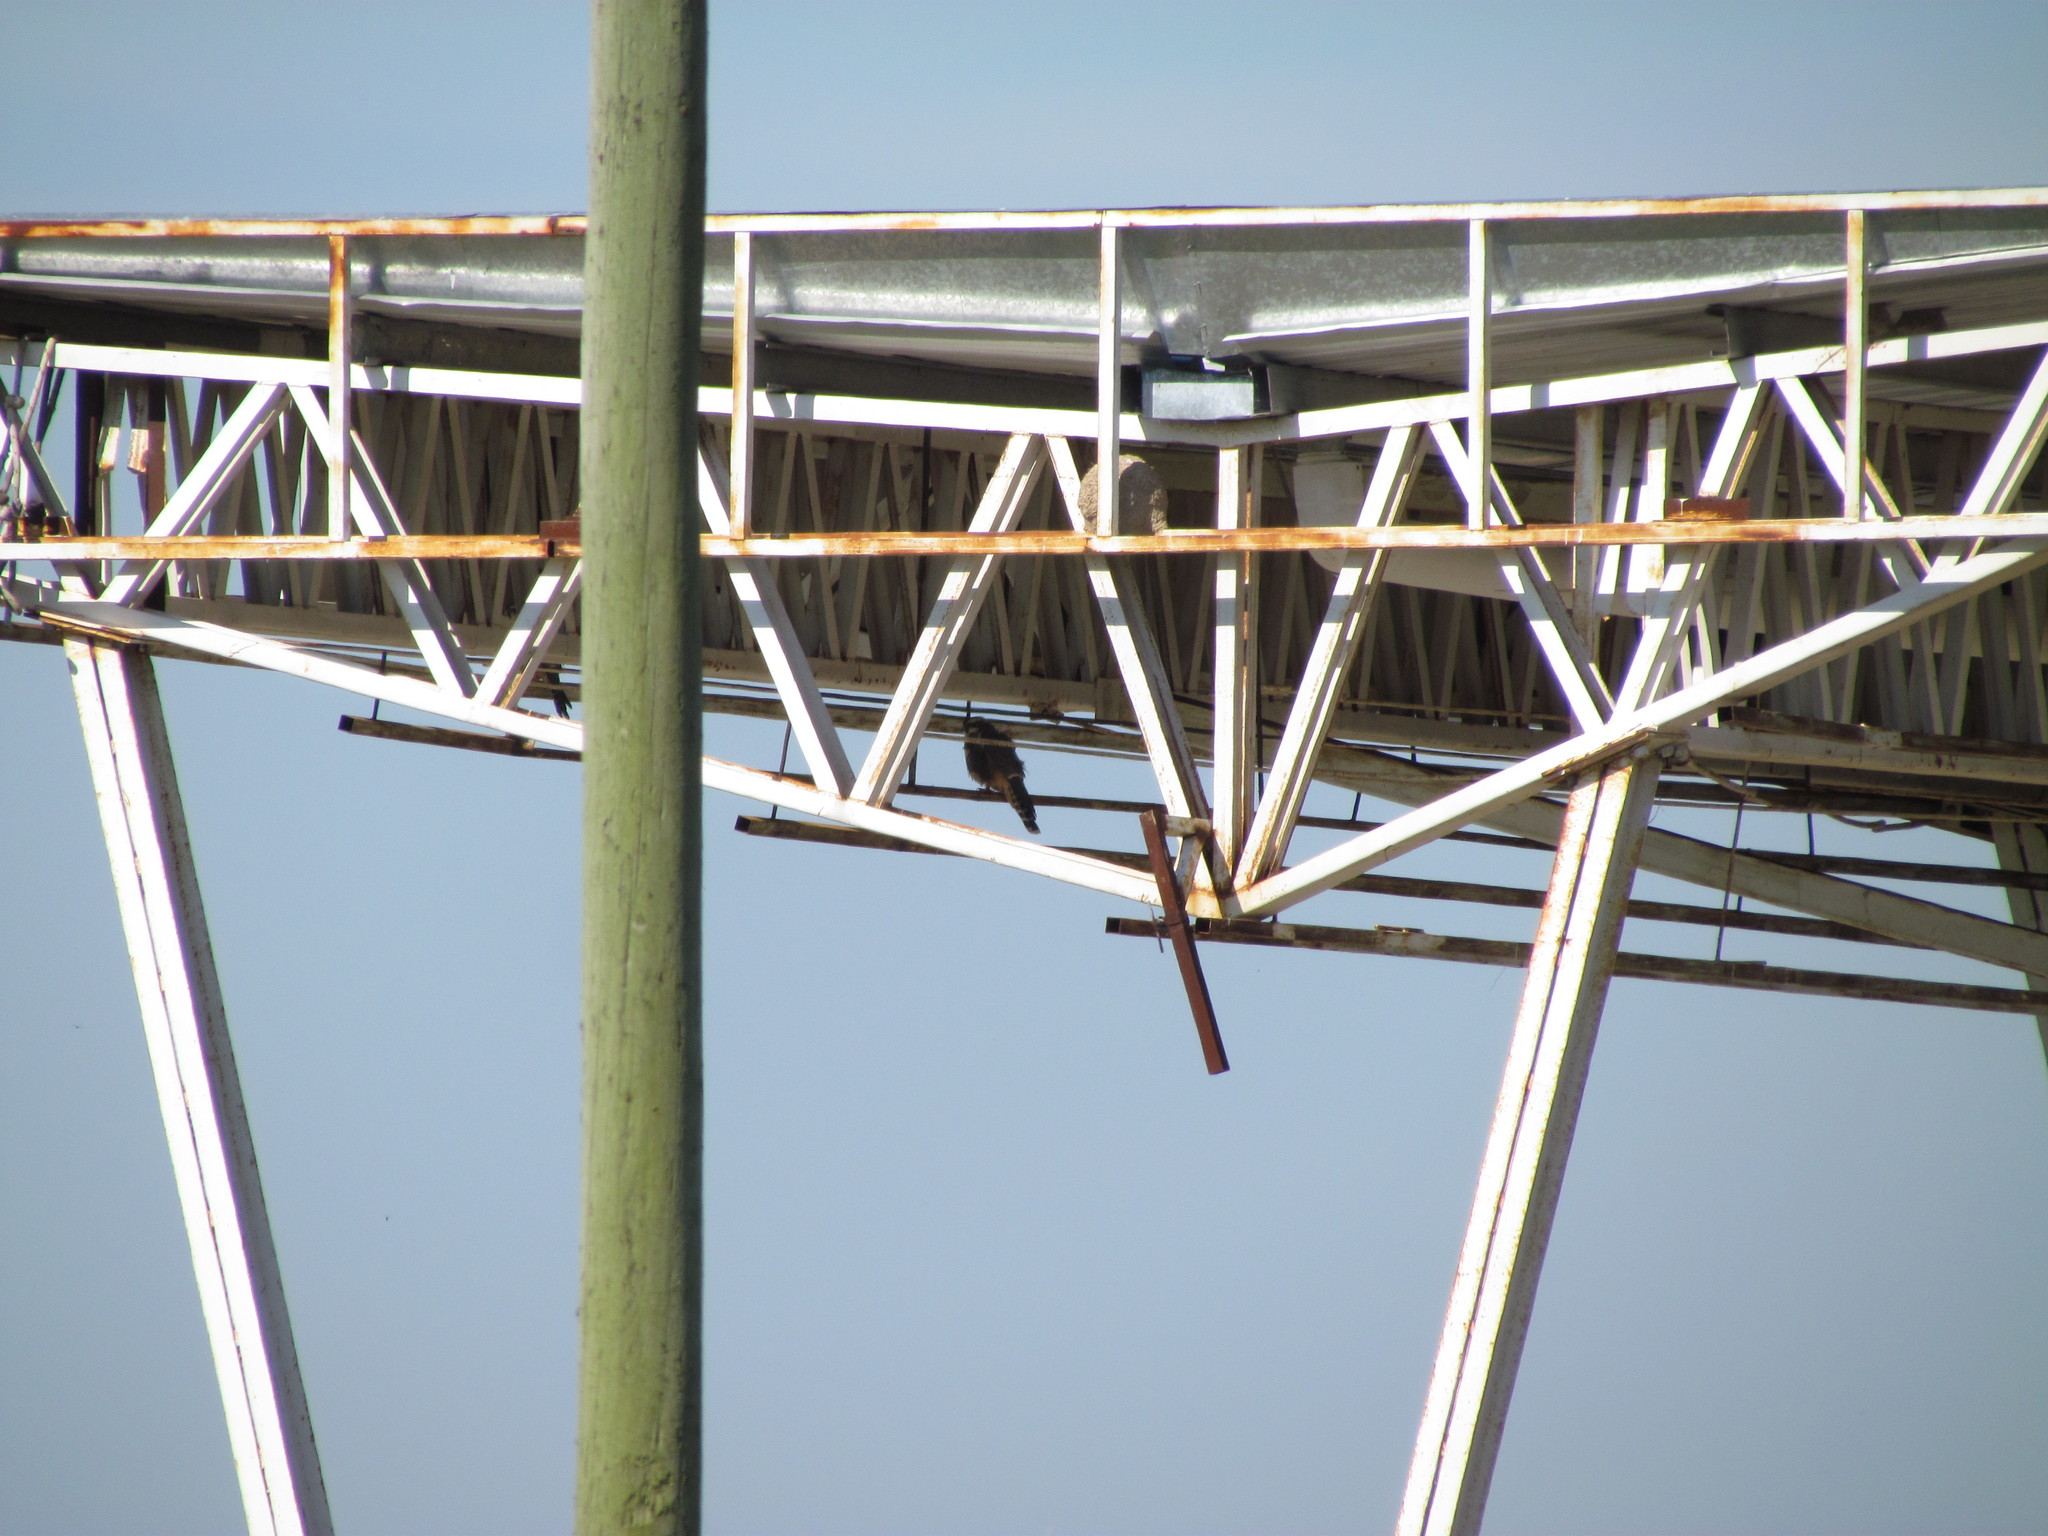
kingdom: Animalia
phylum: Chordata
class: Aves
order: Falconiformes
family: Falconidae
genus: Falco
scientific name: Falco femoralis
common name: Aplomado falcon
